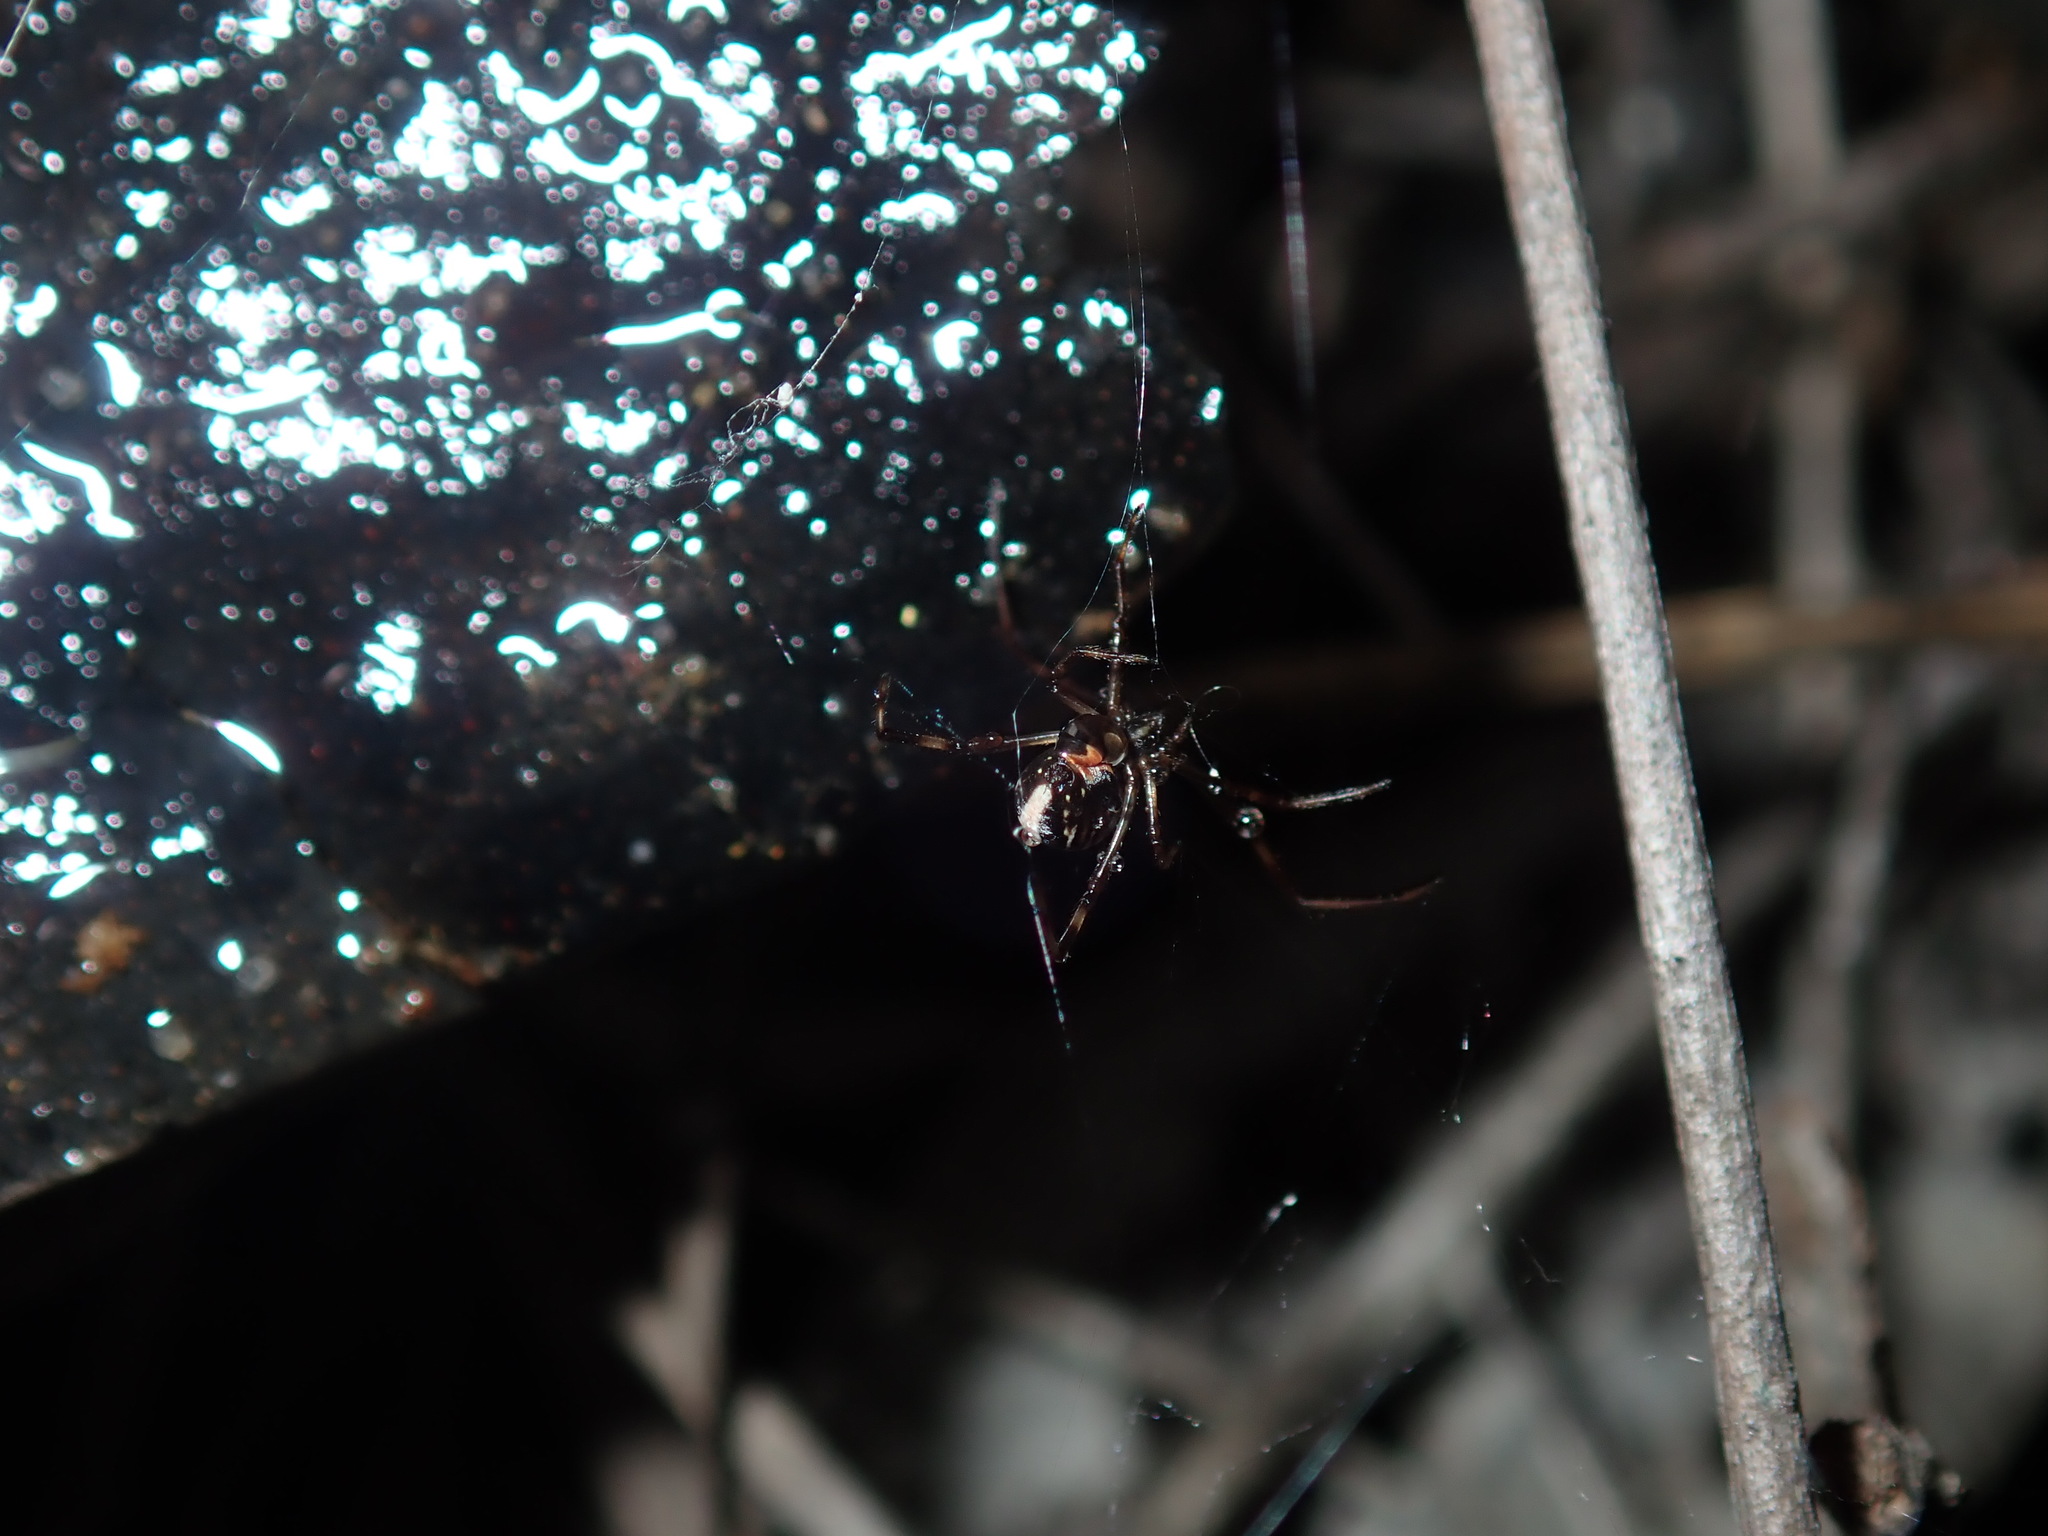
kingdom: Animalia
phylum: Arthropoda
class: Arachnida
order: Araneae
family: Theridiidae
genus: Latrodectus
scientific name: Latrodectus hasselti
